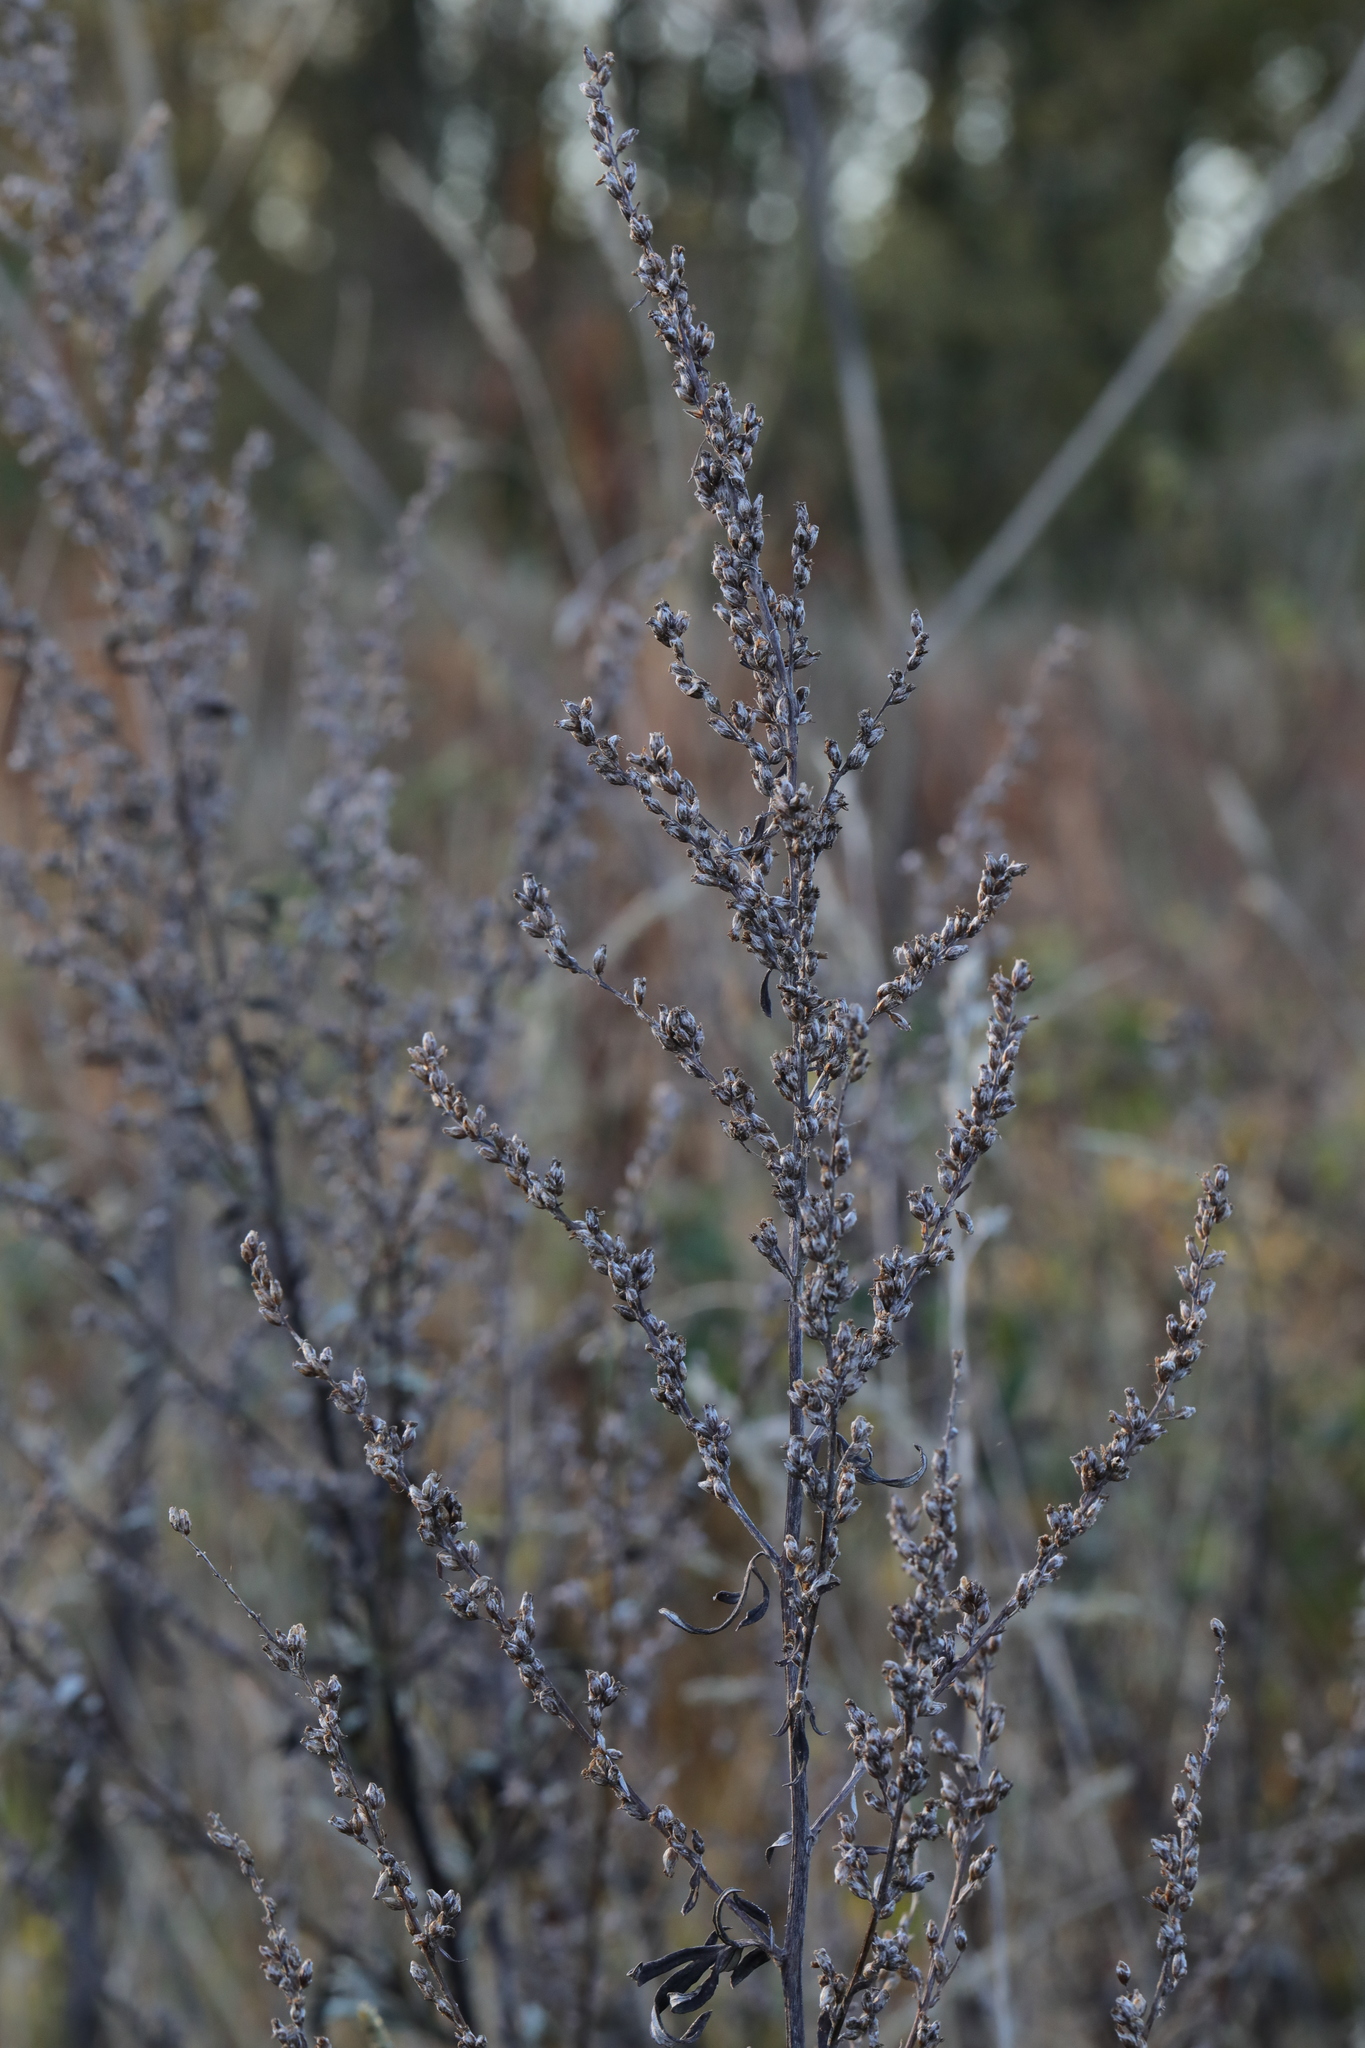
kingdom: Plantae
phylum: Tracheophyta
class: Magnoliopsida
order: Asterales
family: Asteraceae
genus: Artemisia
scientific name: Artemisia vulgaris
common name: Mugwort
